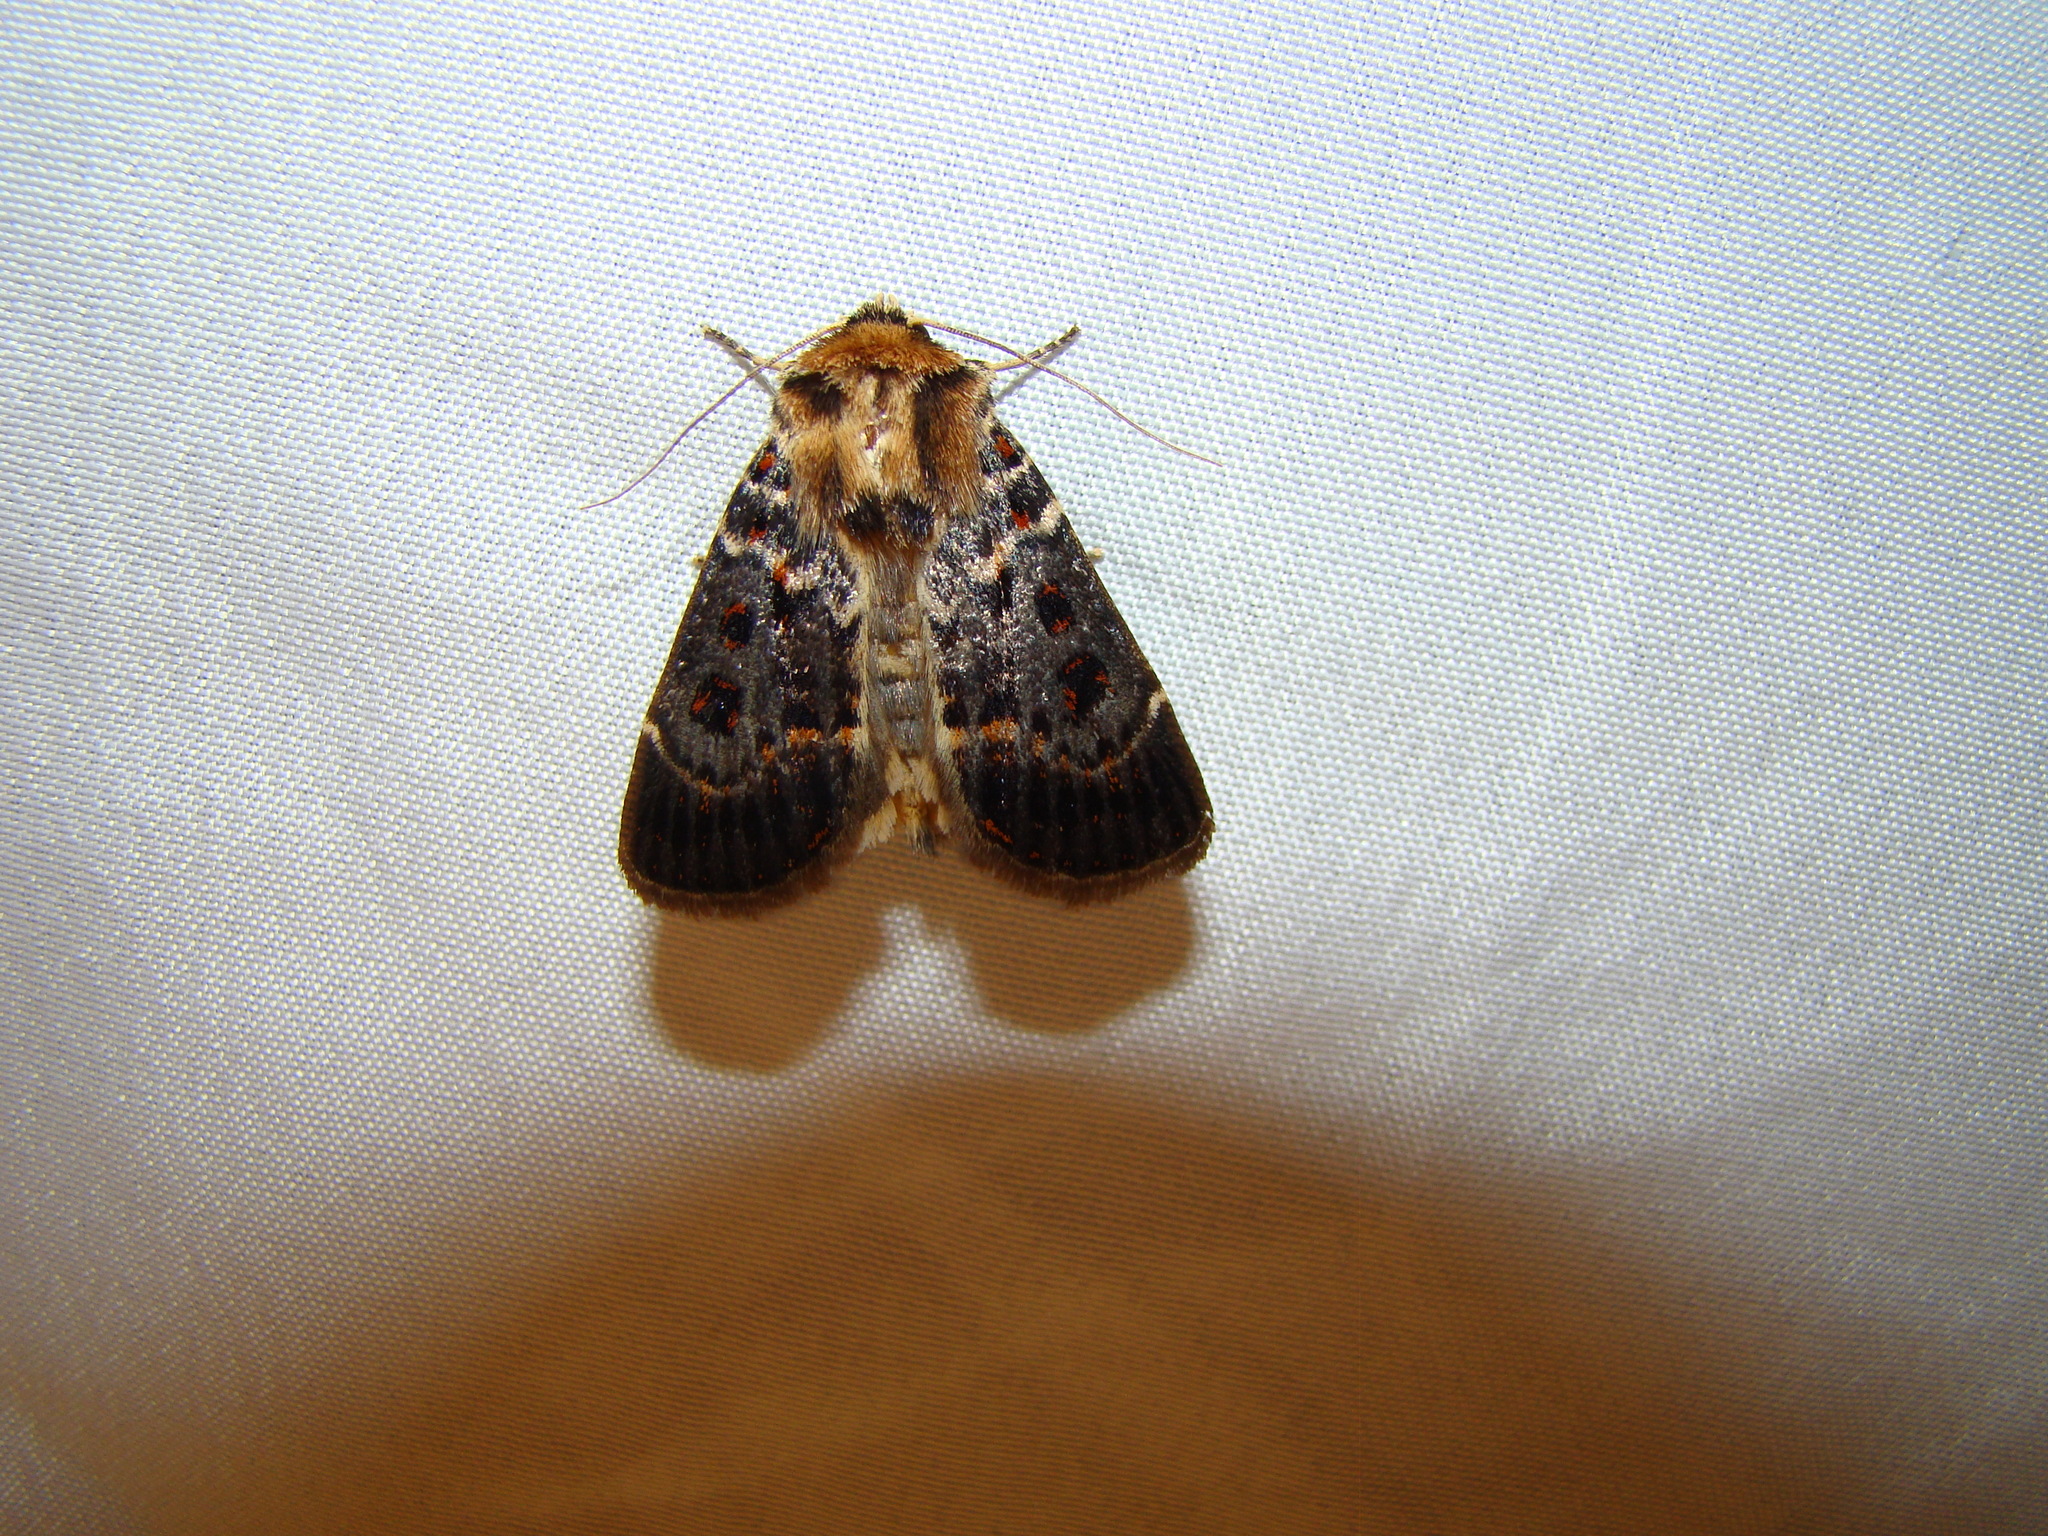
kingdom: Animalia
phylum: Arthropoda
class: Insecta
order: Lepidoptera
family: Noctuidae
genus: Proteuxoa
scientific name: Proteuxoa sanguinipuncta
